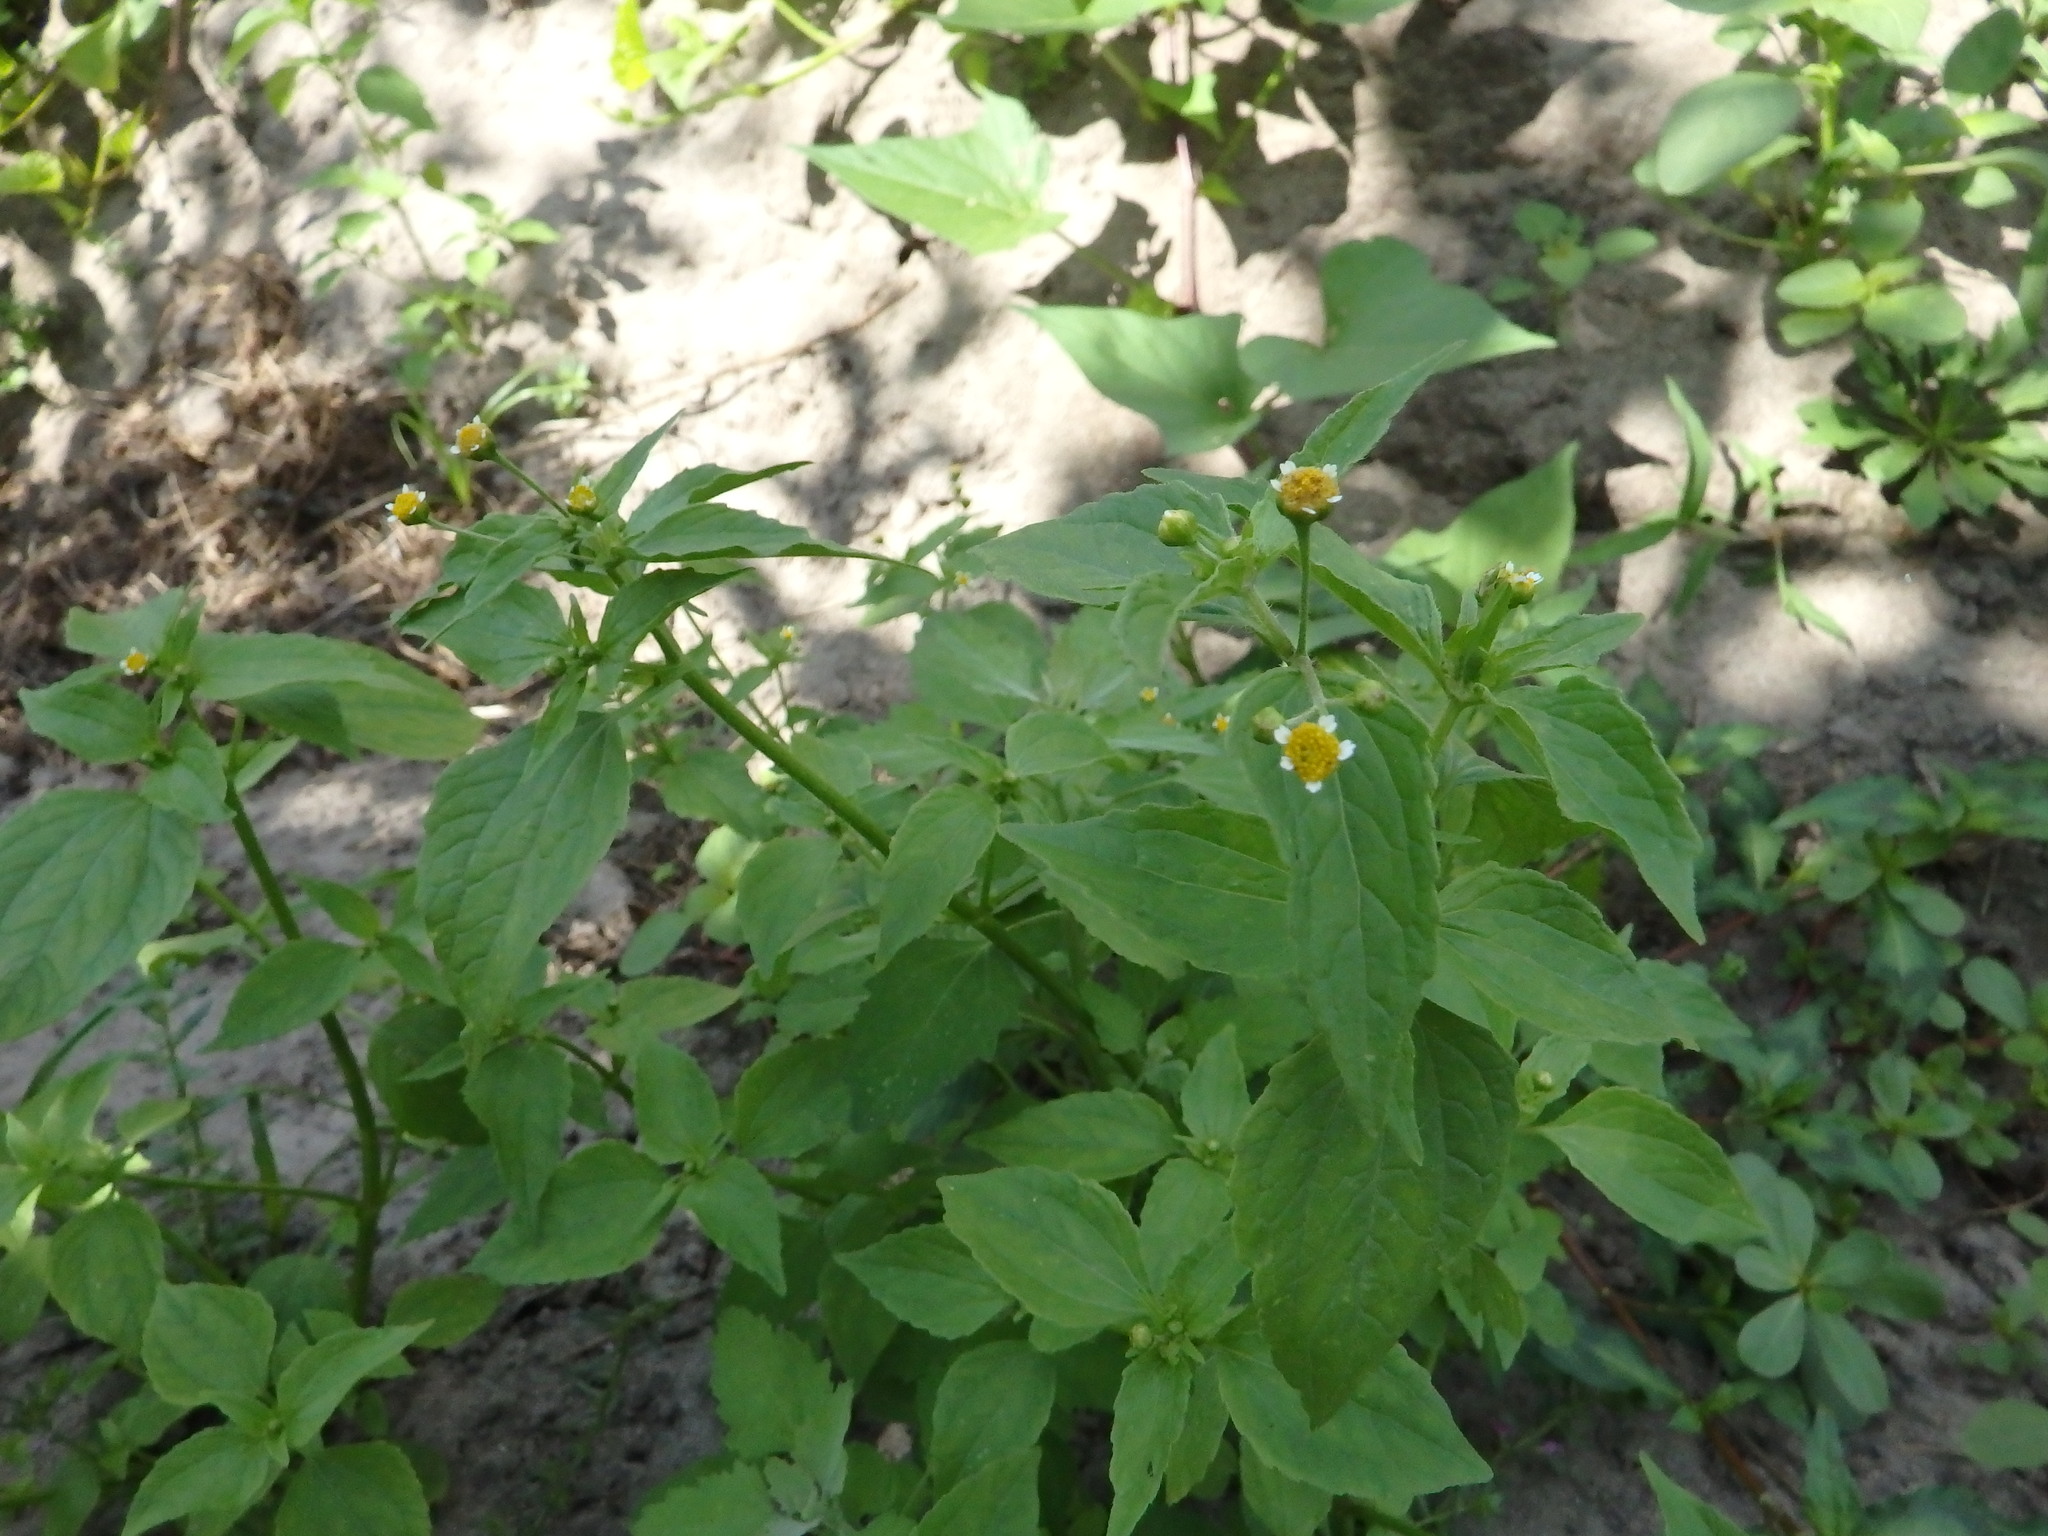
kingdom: Plantae
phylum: Tracheophyta
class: Magnoliopsida
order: Asterales
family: Asteraceae
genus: Galinsoga
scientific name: Galinsoga parviflora
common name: Gallant soldier
